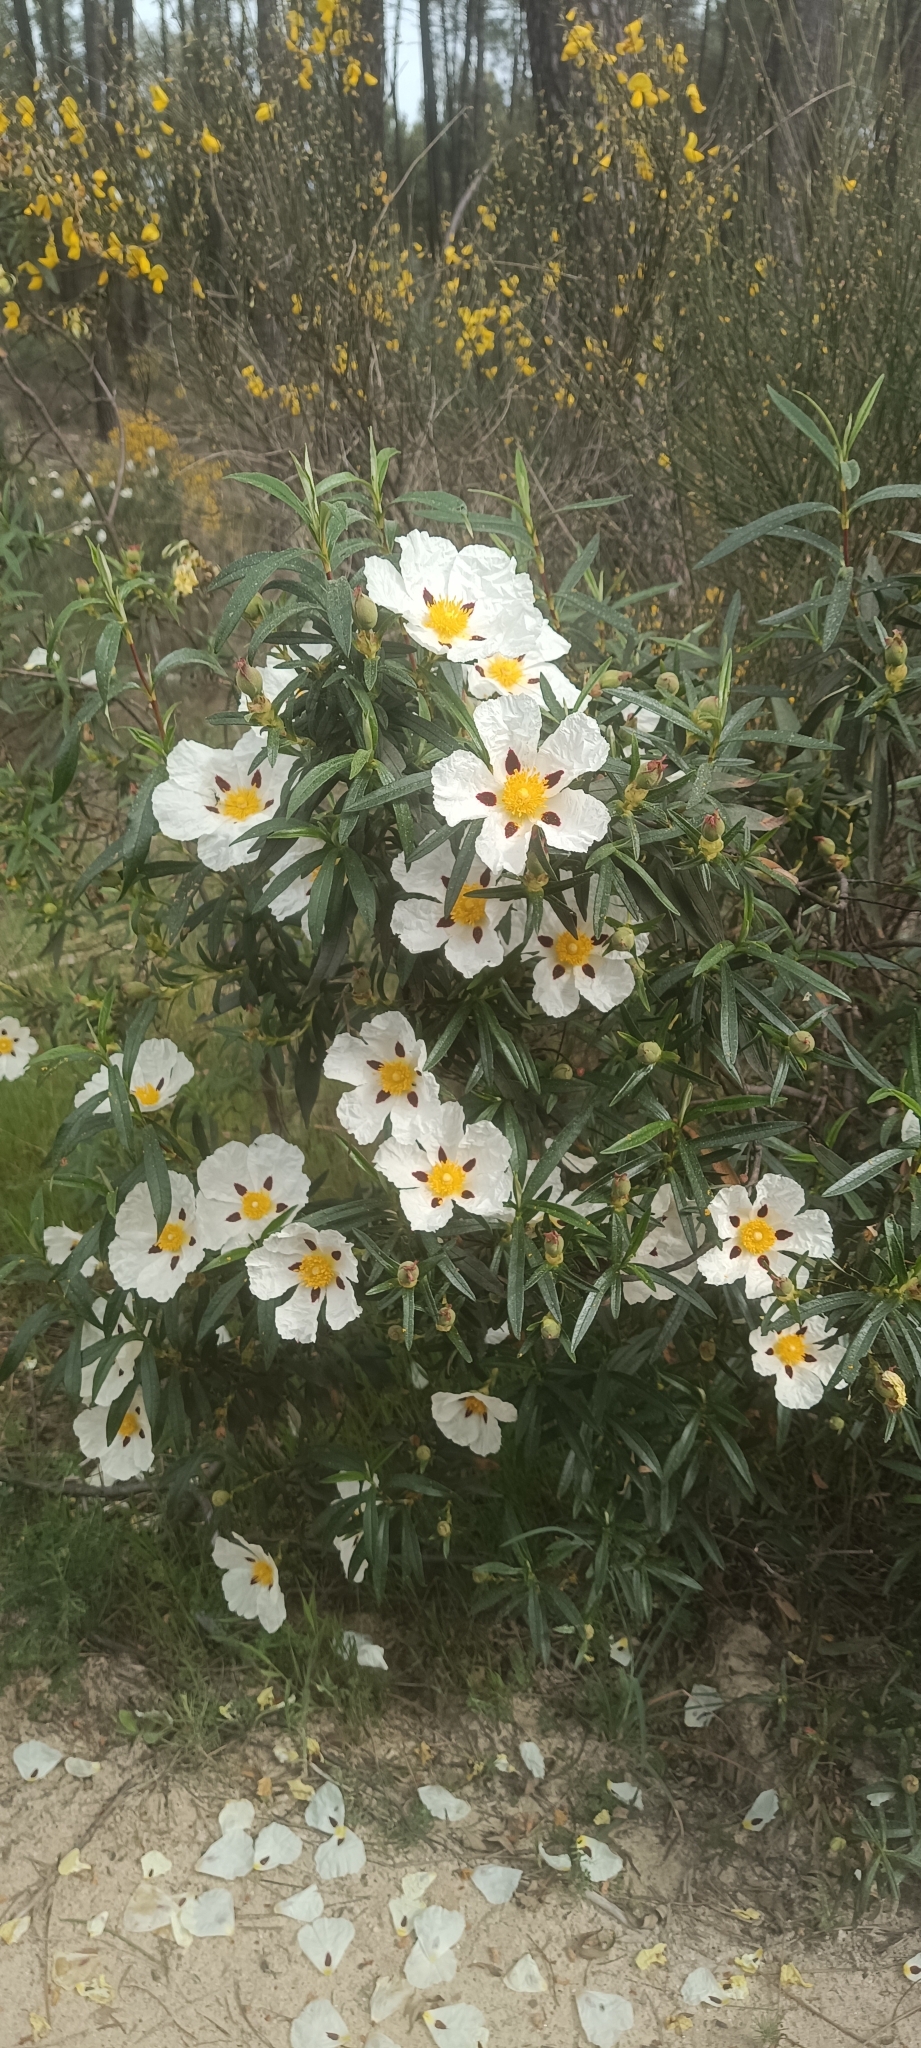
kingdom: Plantae
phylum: Tracheophyta
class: Magnoliopsida
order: Malvales
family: Cistaceae
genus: Cistus
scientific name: Cistus ladanifer
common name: Common gum cistus
